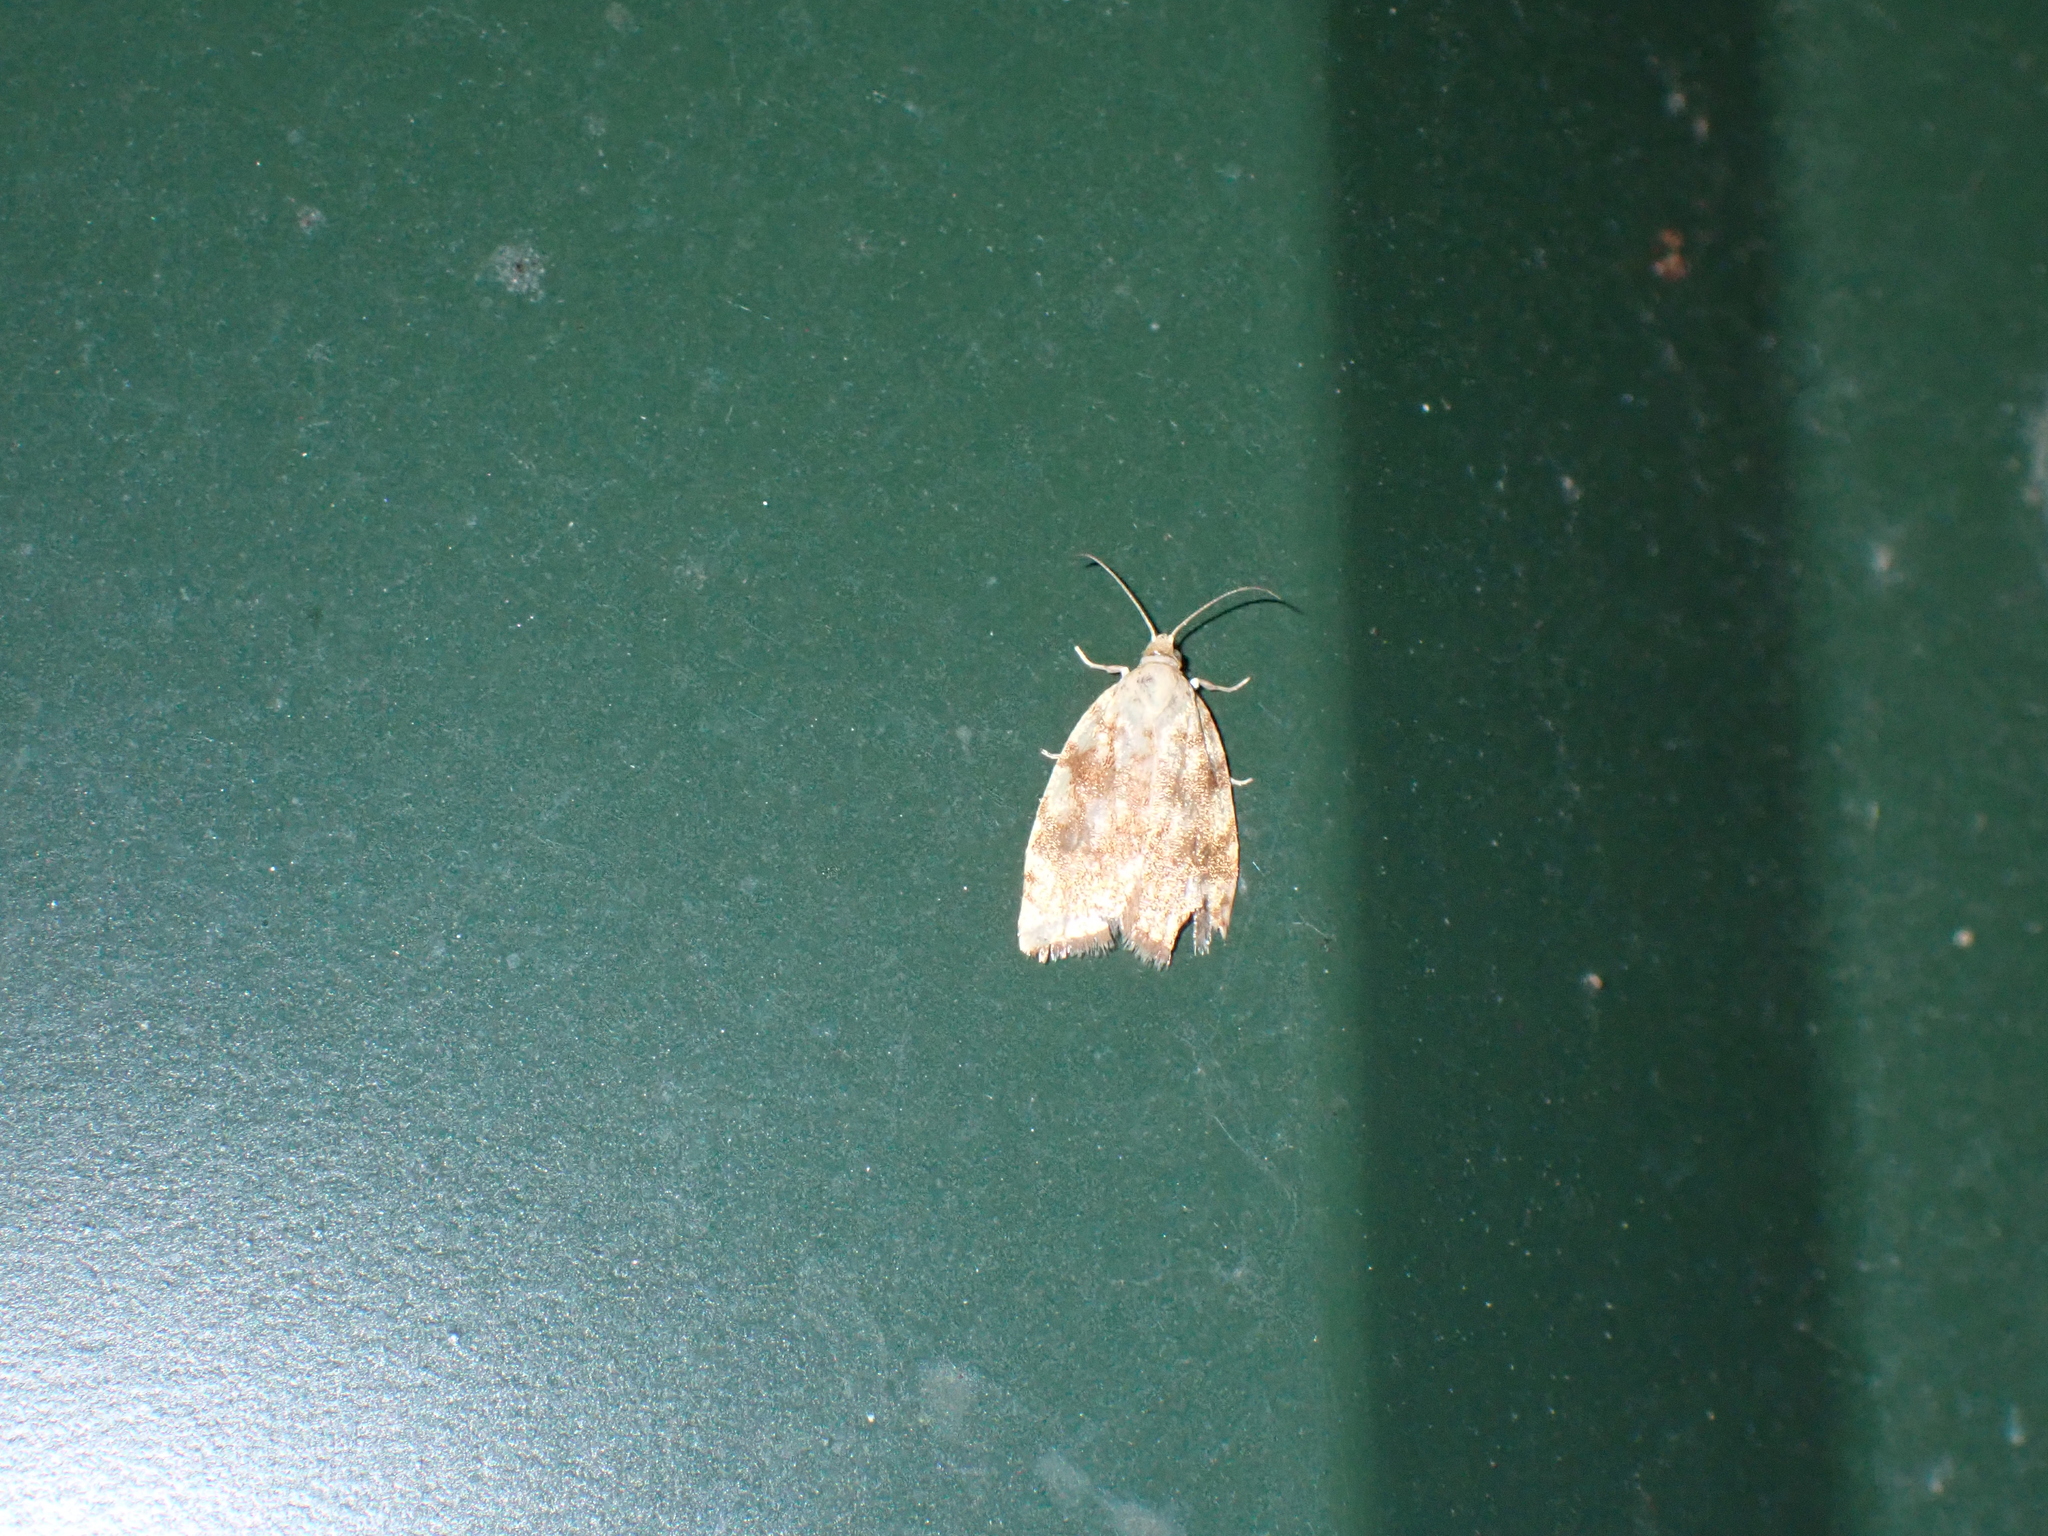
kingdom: Animalia
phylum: Arthropoda
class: Insecta
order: Lepidoptera
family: Tortricidae
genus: Aleimma
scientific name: Aleimma loeflingiana
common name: Yellow oak button
